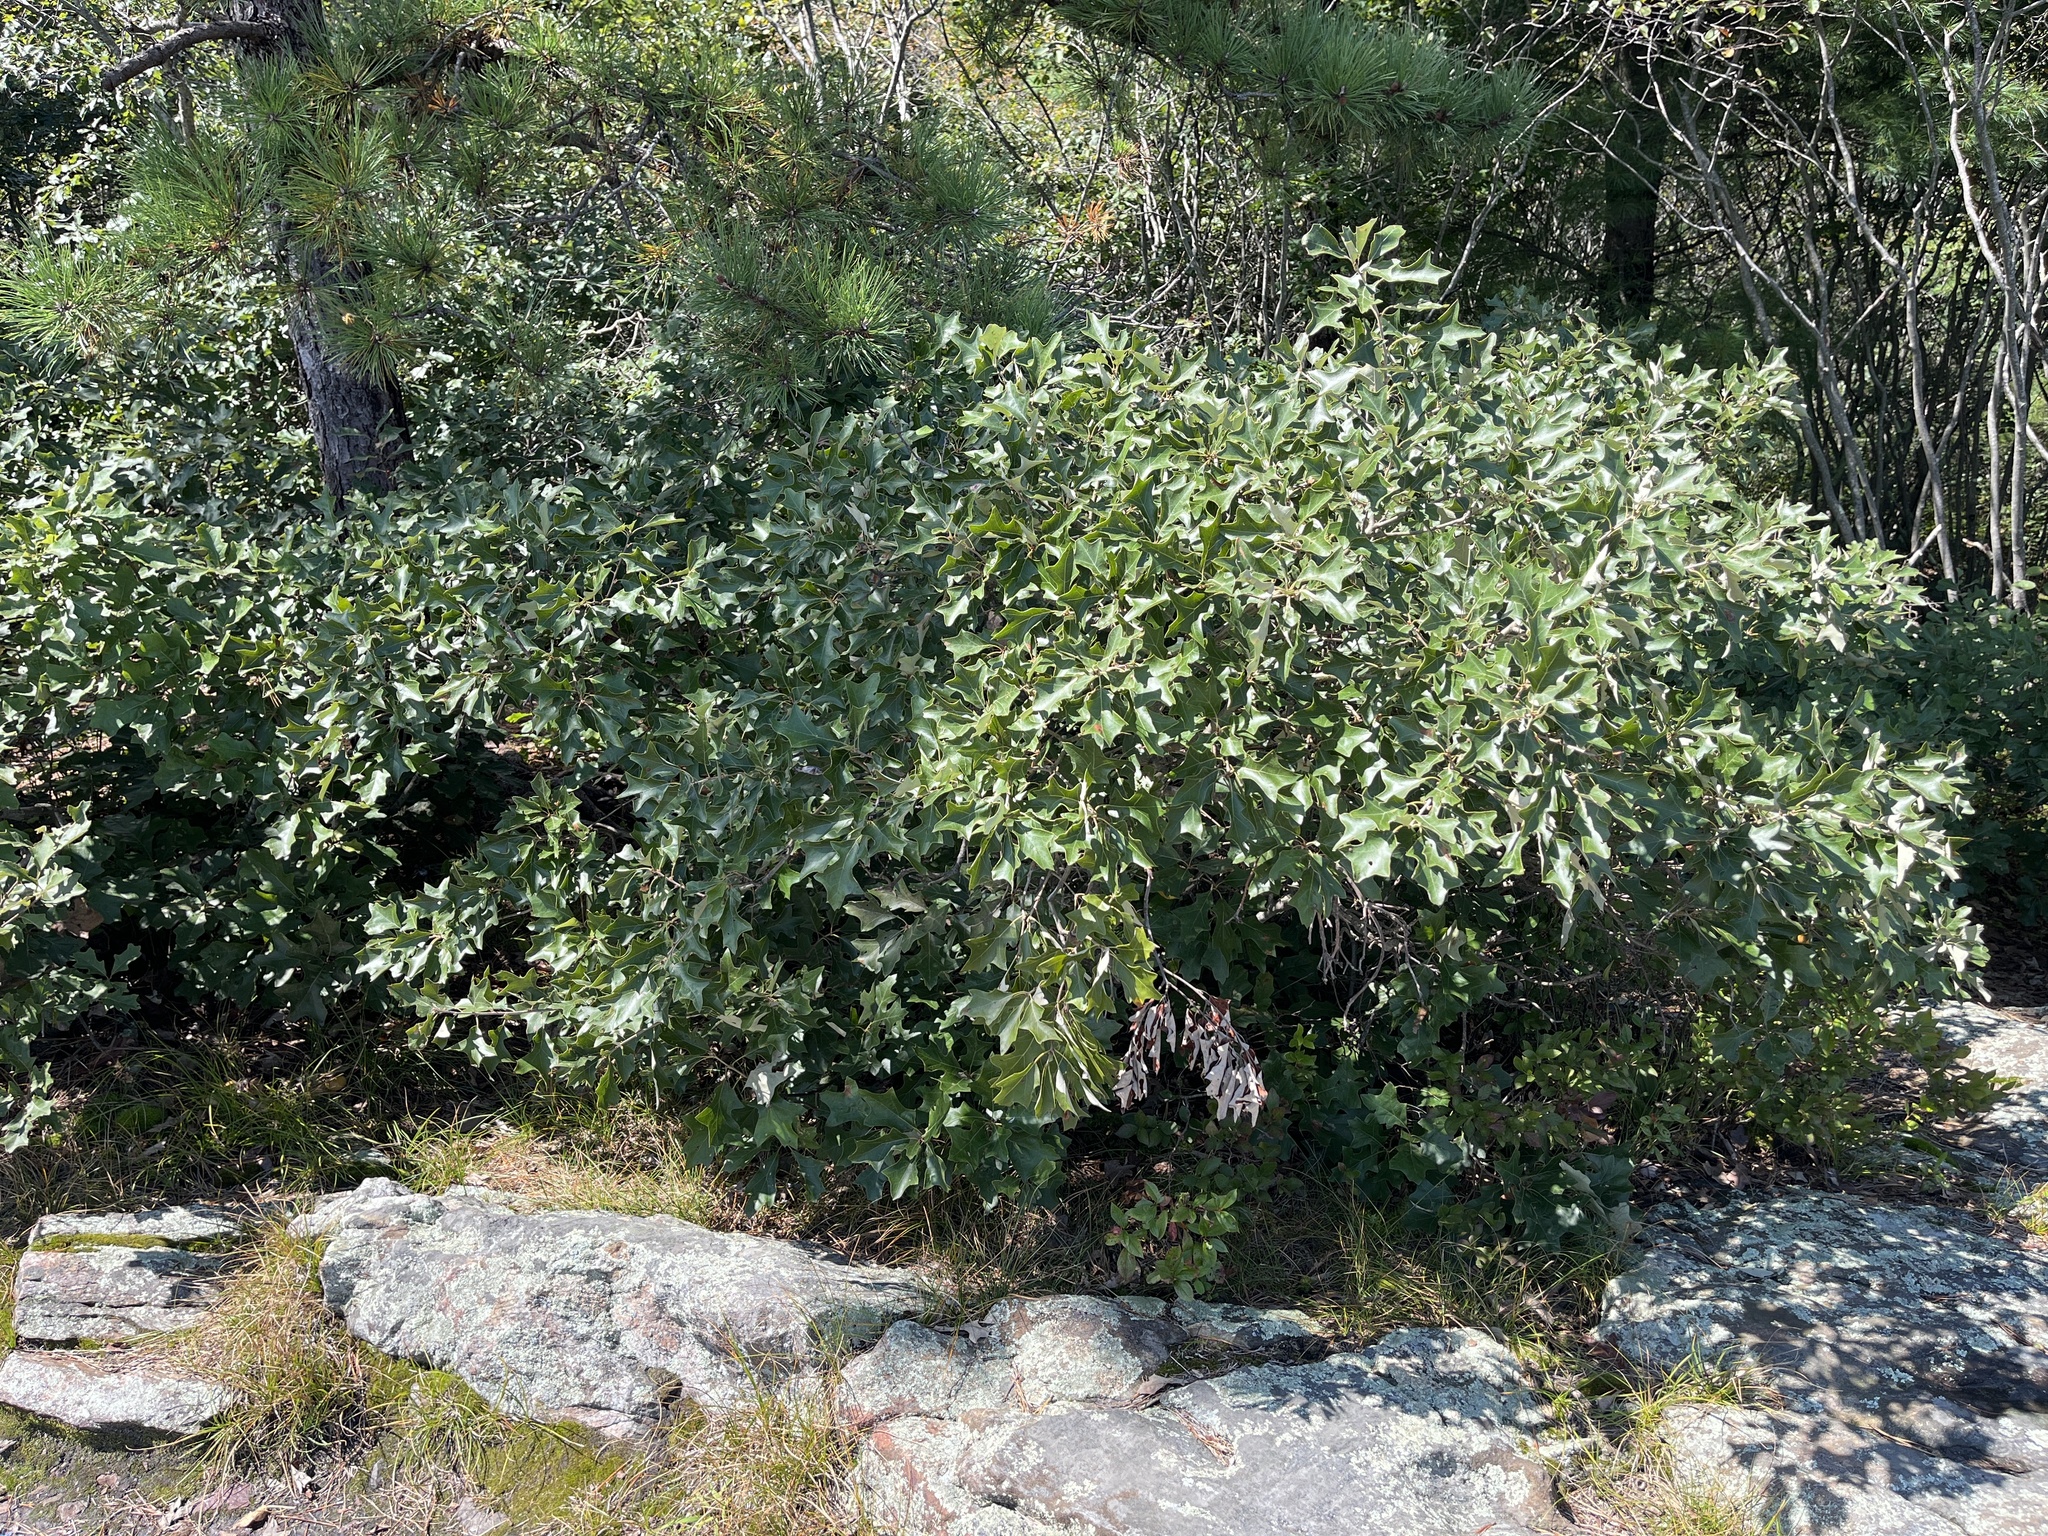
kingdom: Plantae
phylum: Tracheophyta
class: Magnoliopsida
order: Fagales
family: Fagaceae
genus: Quercus
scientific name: Quercus ilicifolia
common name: Bear oak
